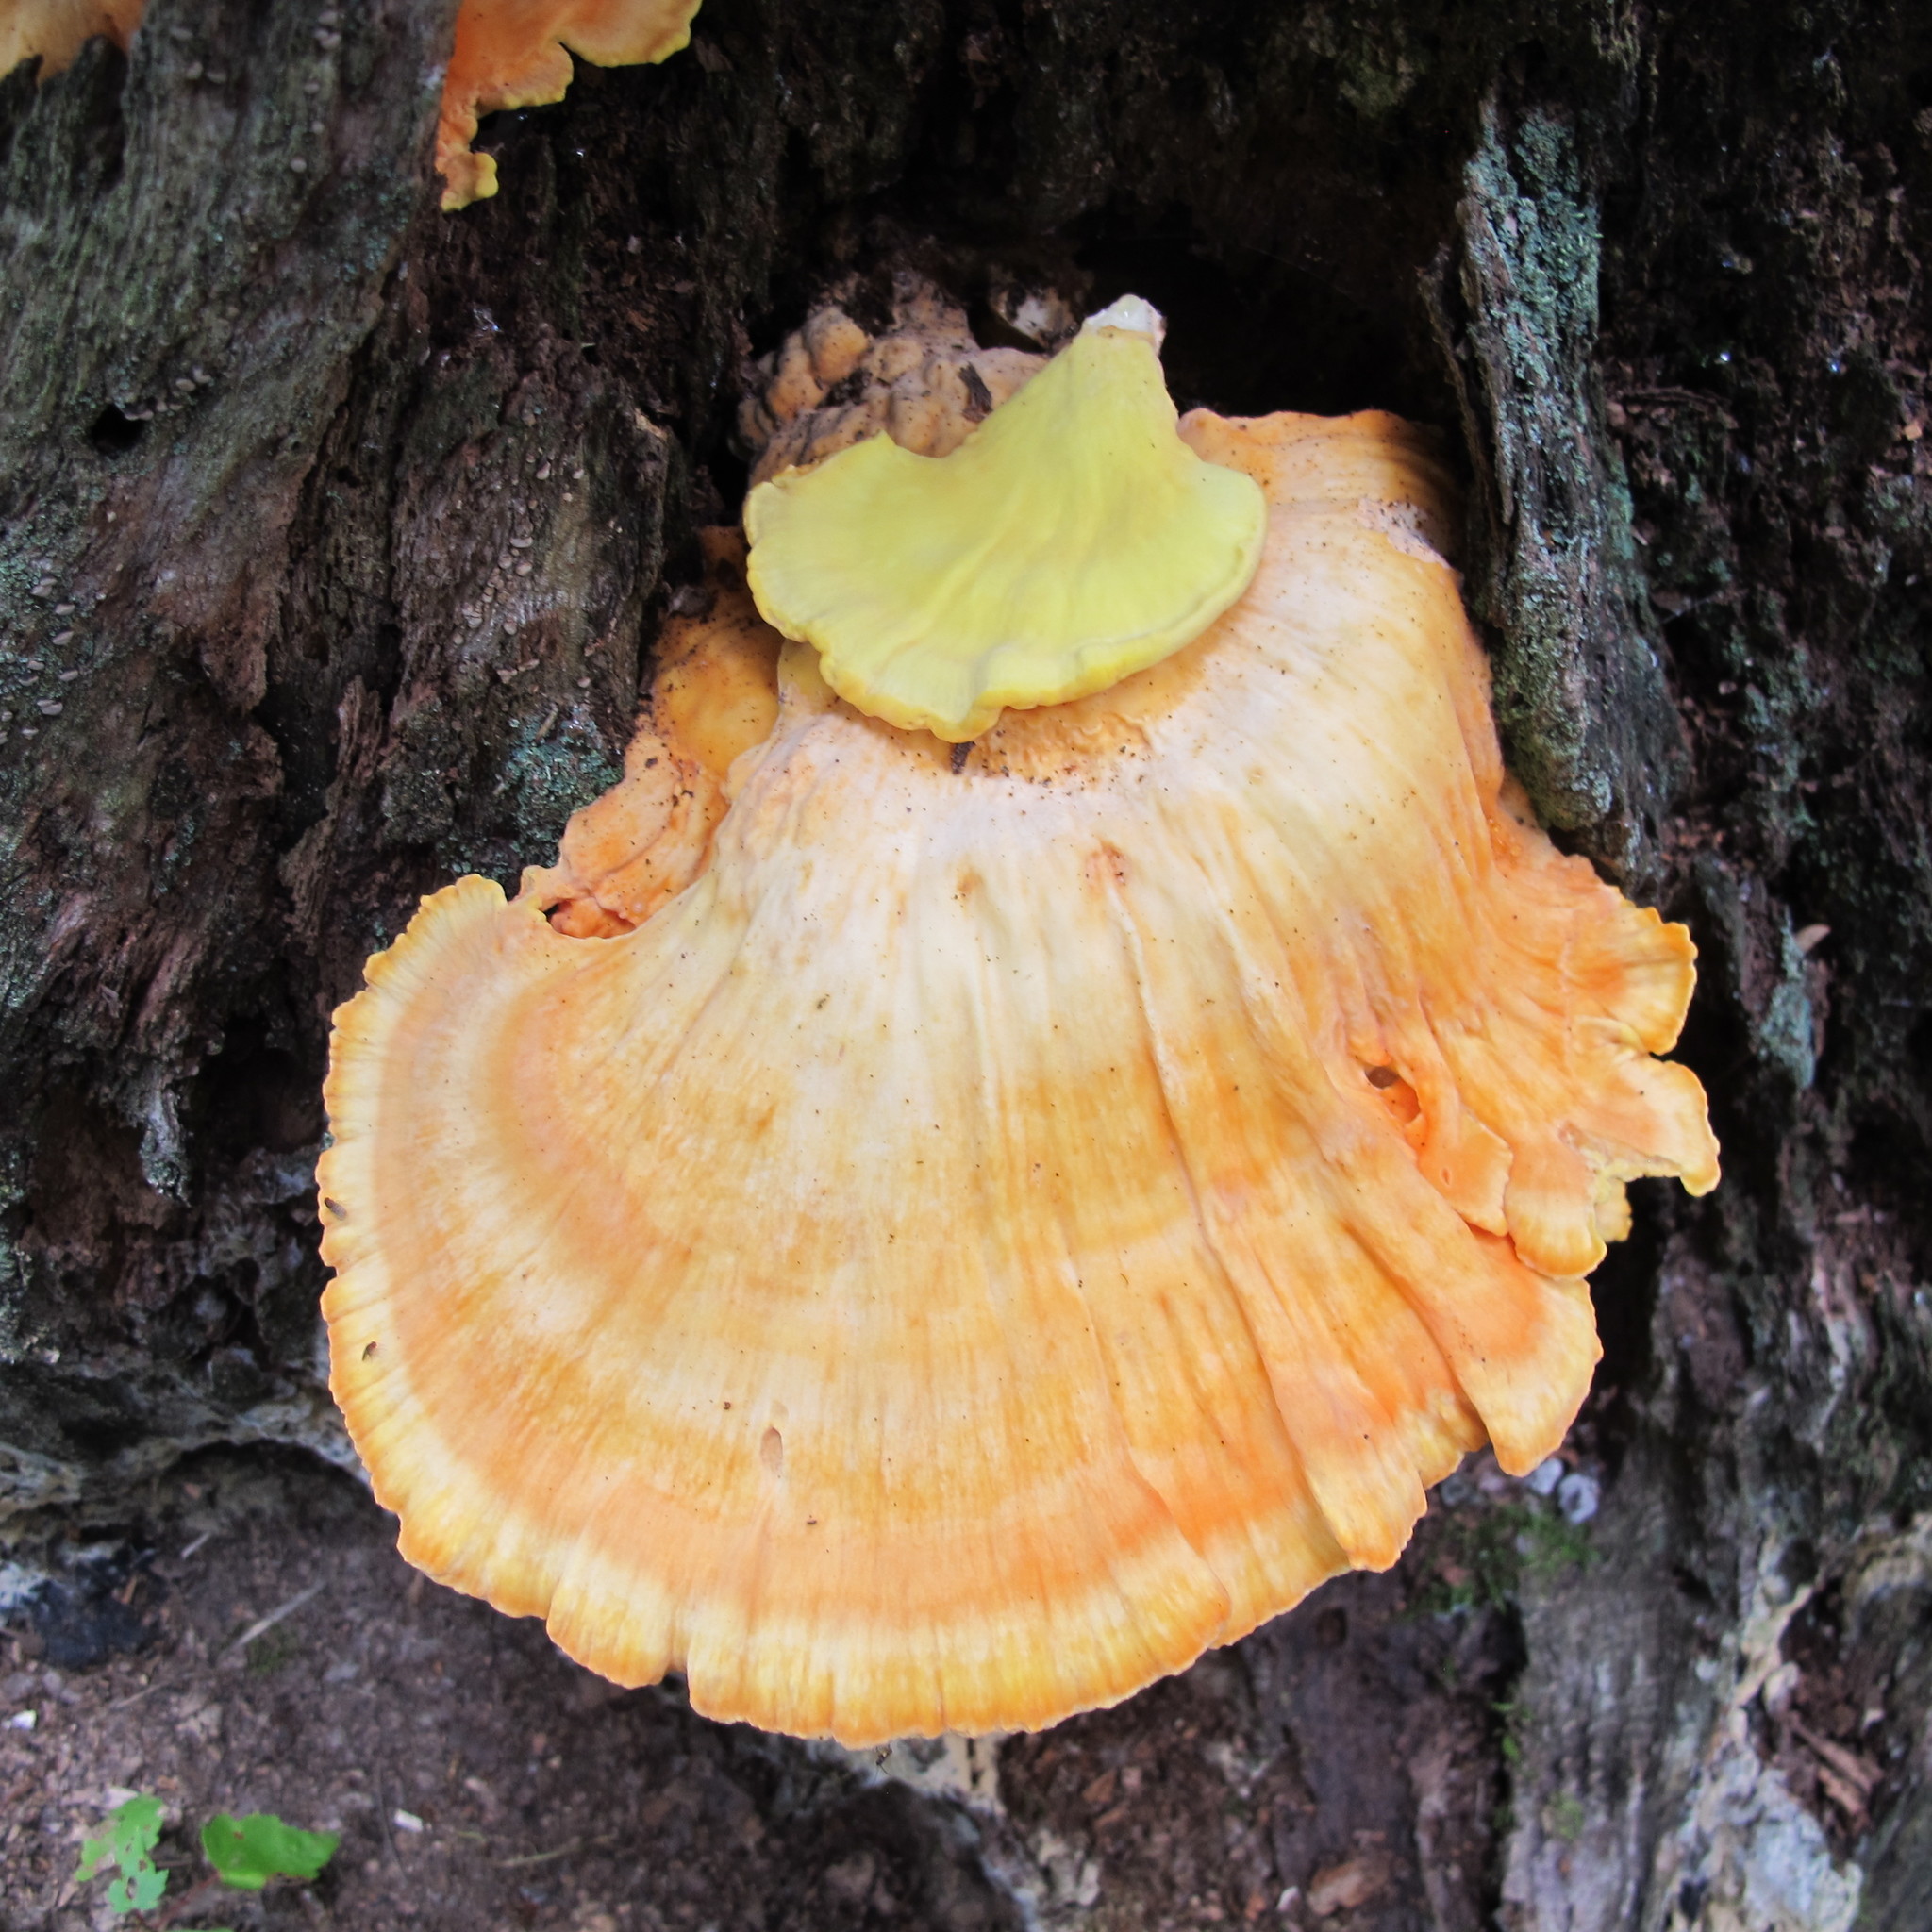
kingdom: Fungi
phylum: Basidiomycota
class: Agaricomycetes
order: Polyporales
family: Laetiporaceae
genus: Laetiporus
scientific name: Laetiporus sulphureus
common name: Chicken of the woods
